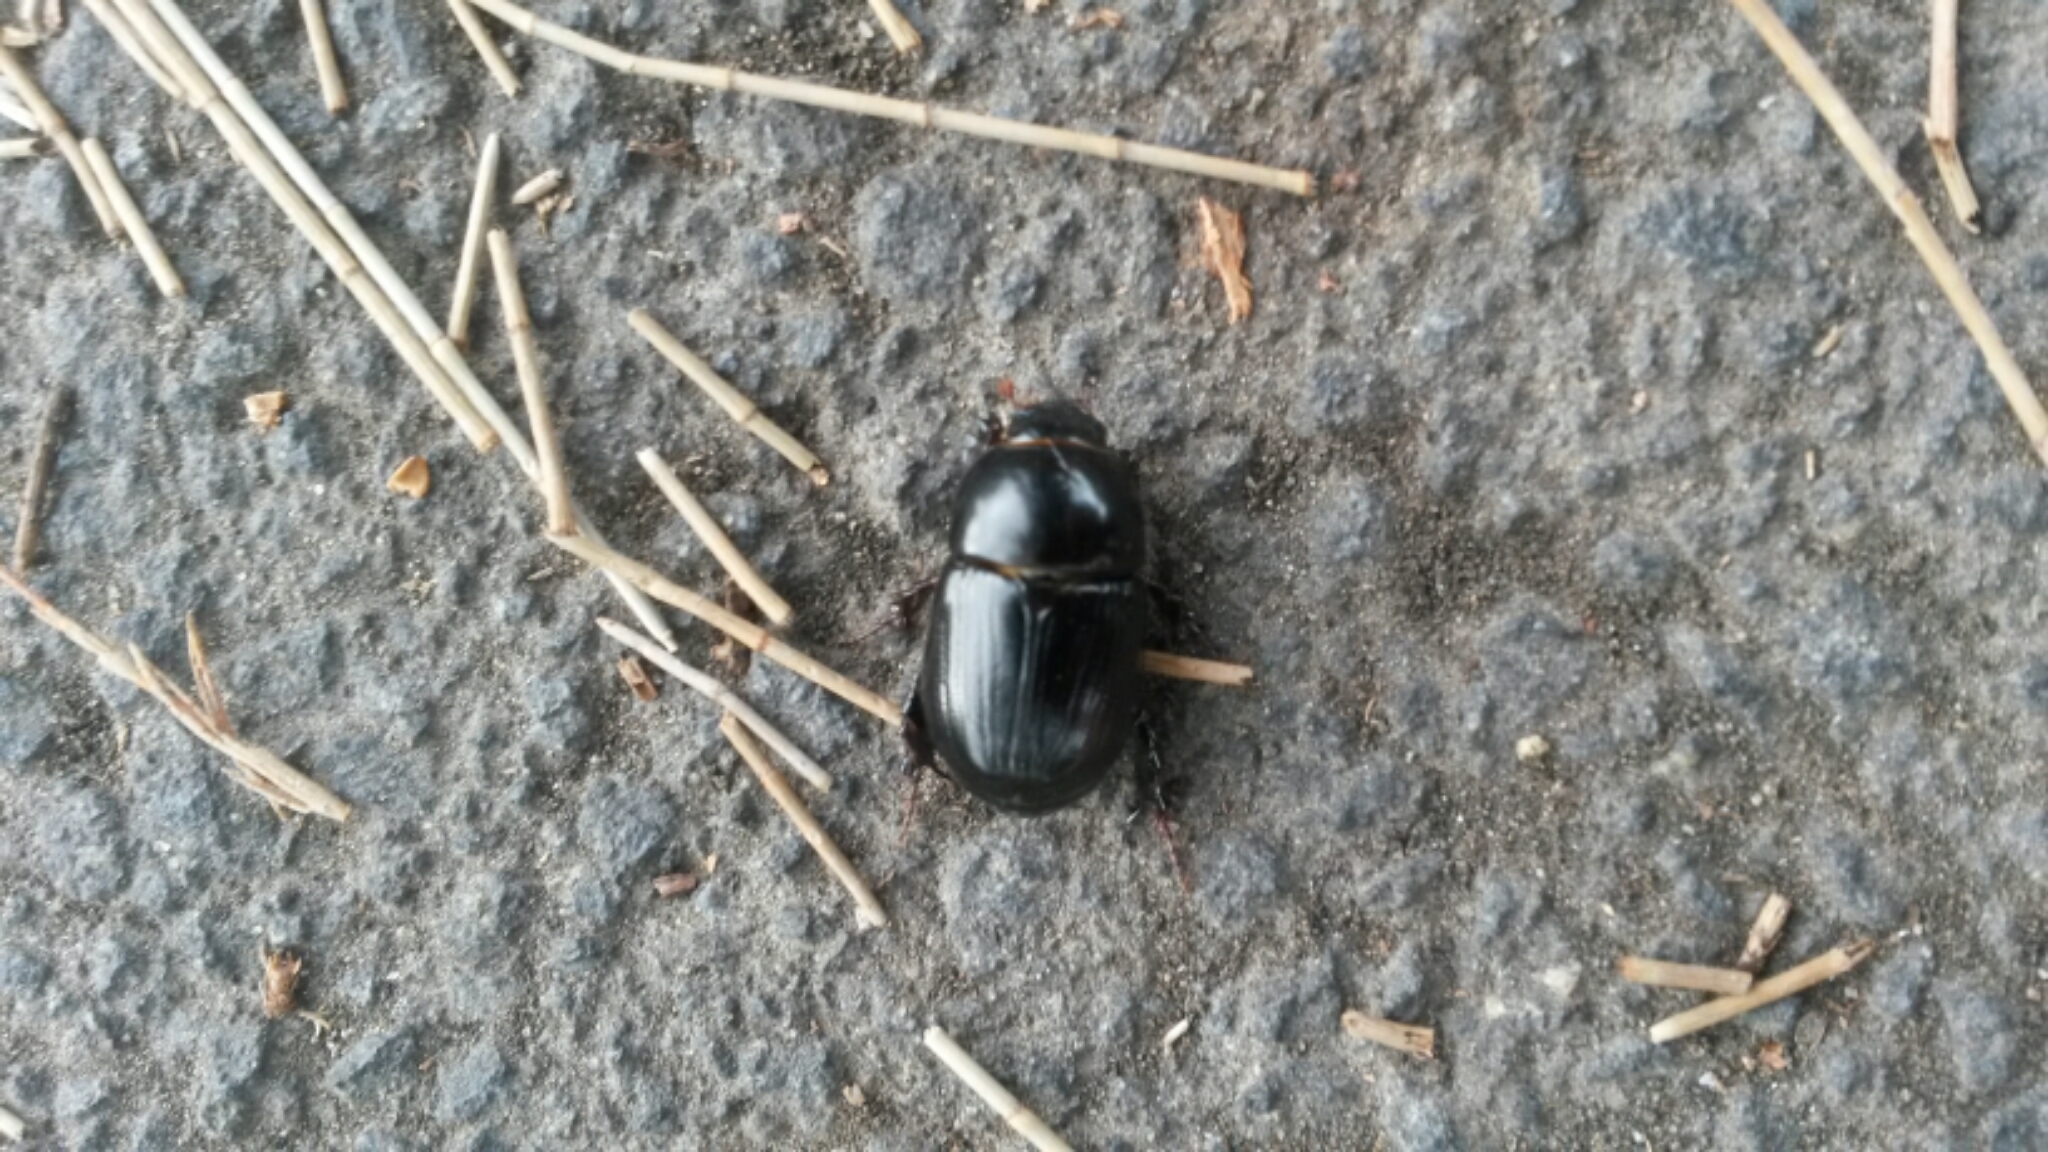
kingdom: Animalia
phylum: Arthropoda
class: Insecta
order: Coleoptera
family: Scarabaeidae
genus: Heteronychus
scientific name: Heteronychus arator
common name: African black beetle
